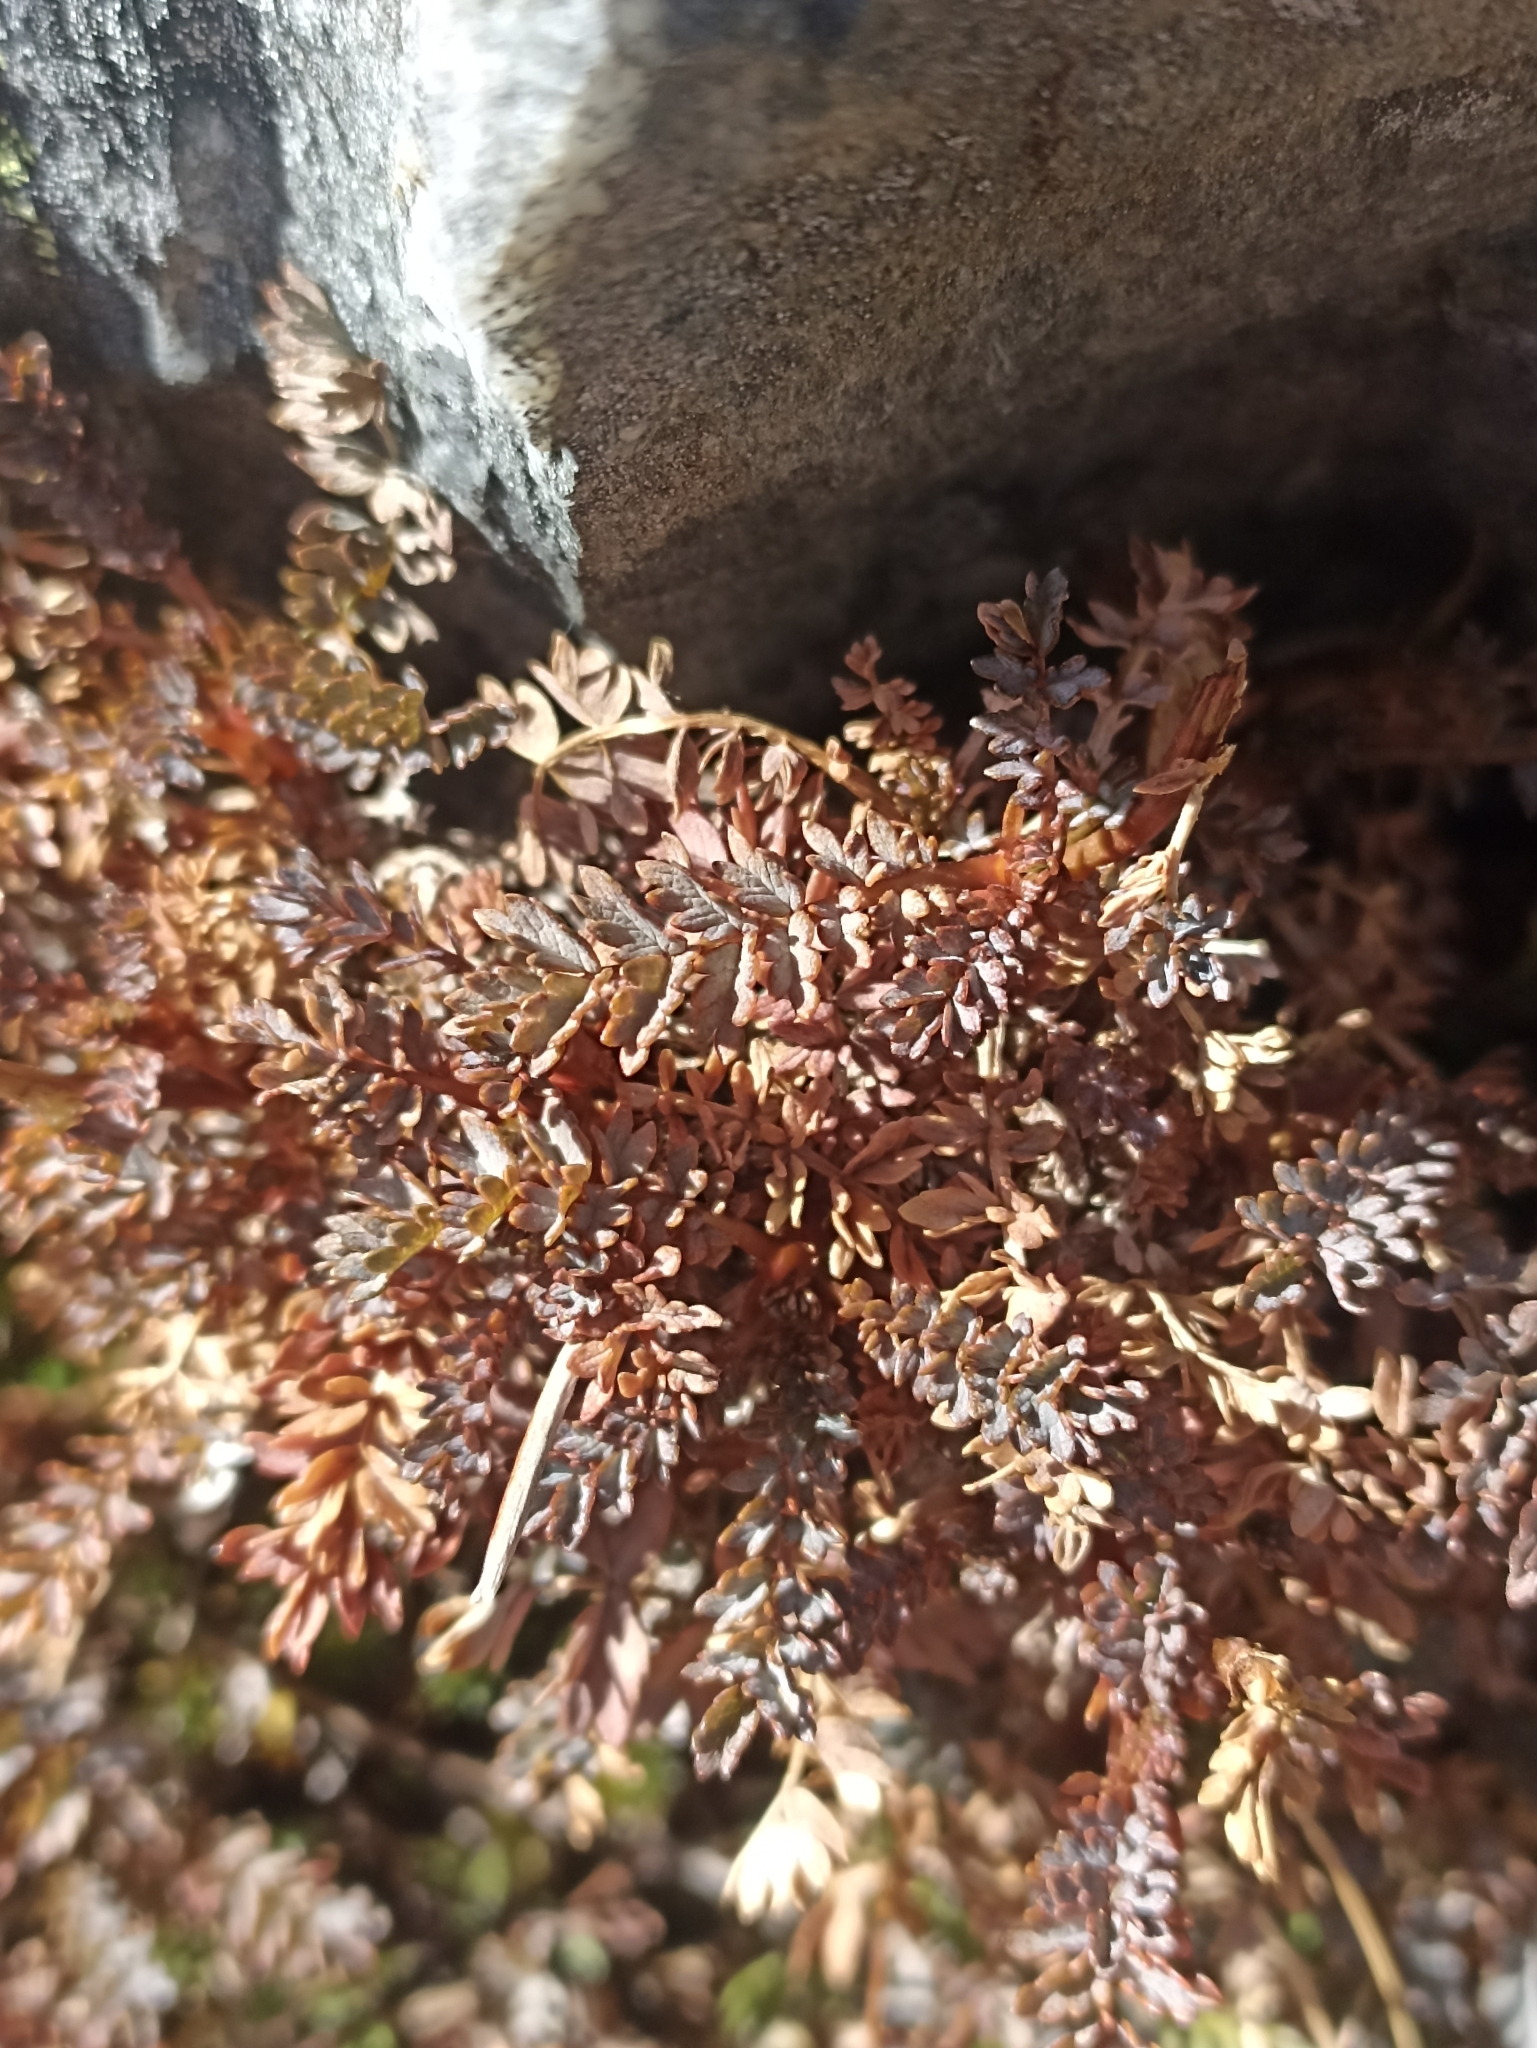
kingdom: Plantae
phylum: Tracheophyta
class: Magnoliopsida
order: Rosales
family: Rosaceae
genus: Acaena
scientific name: Acaena saccaticupula
